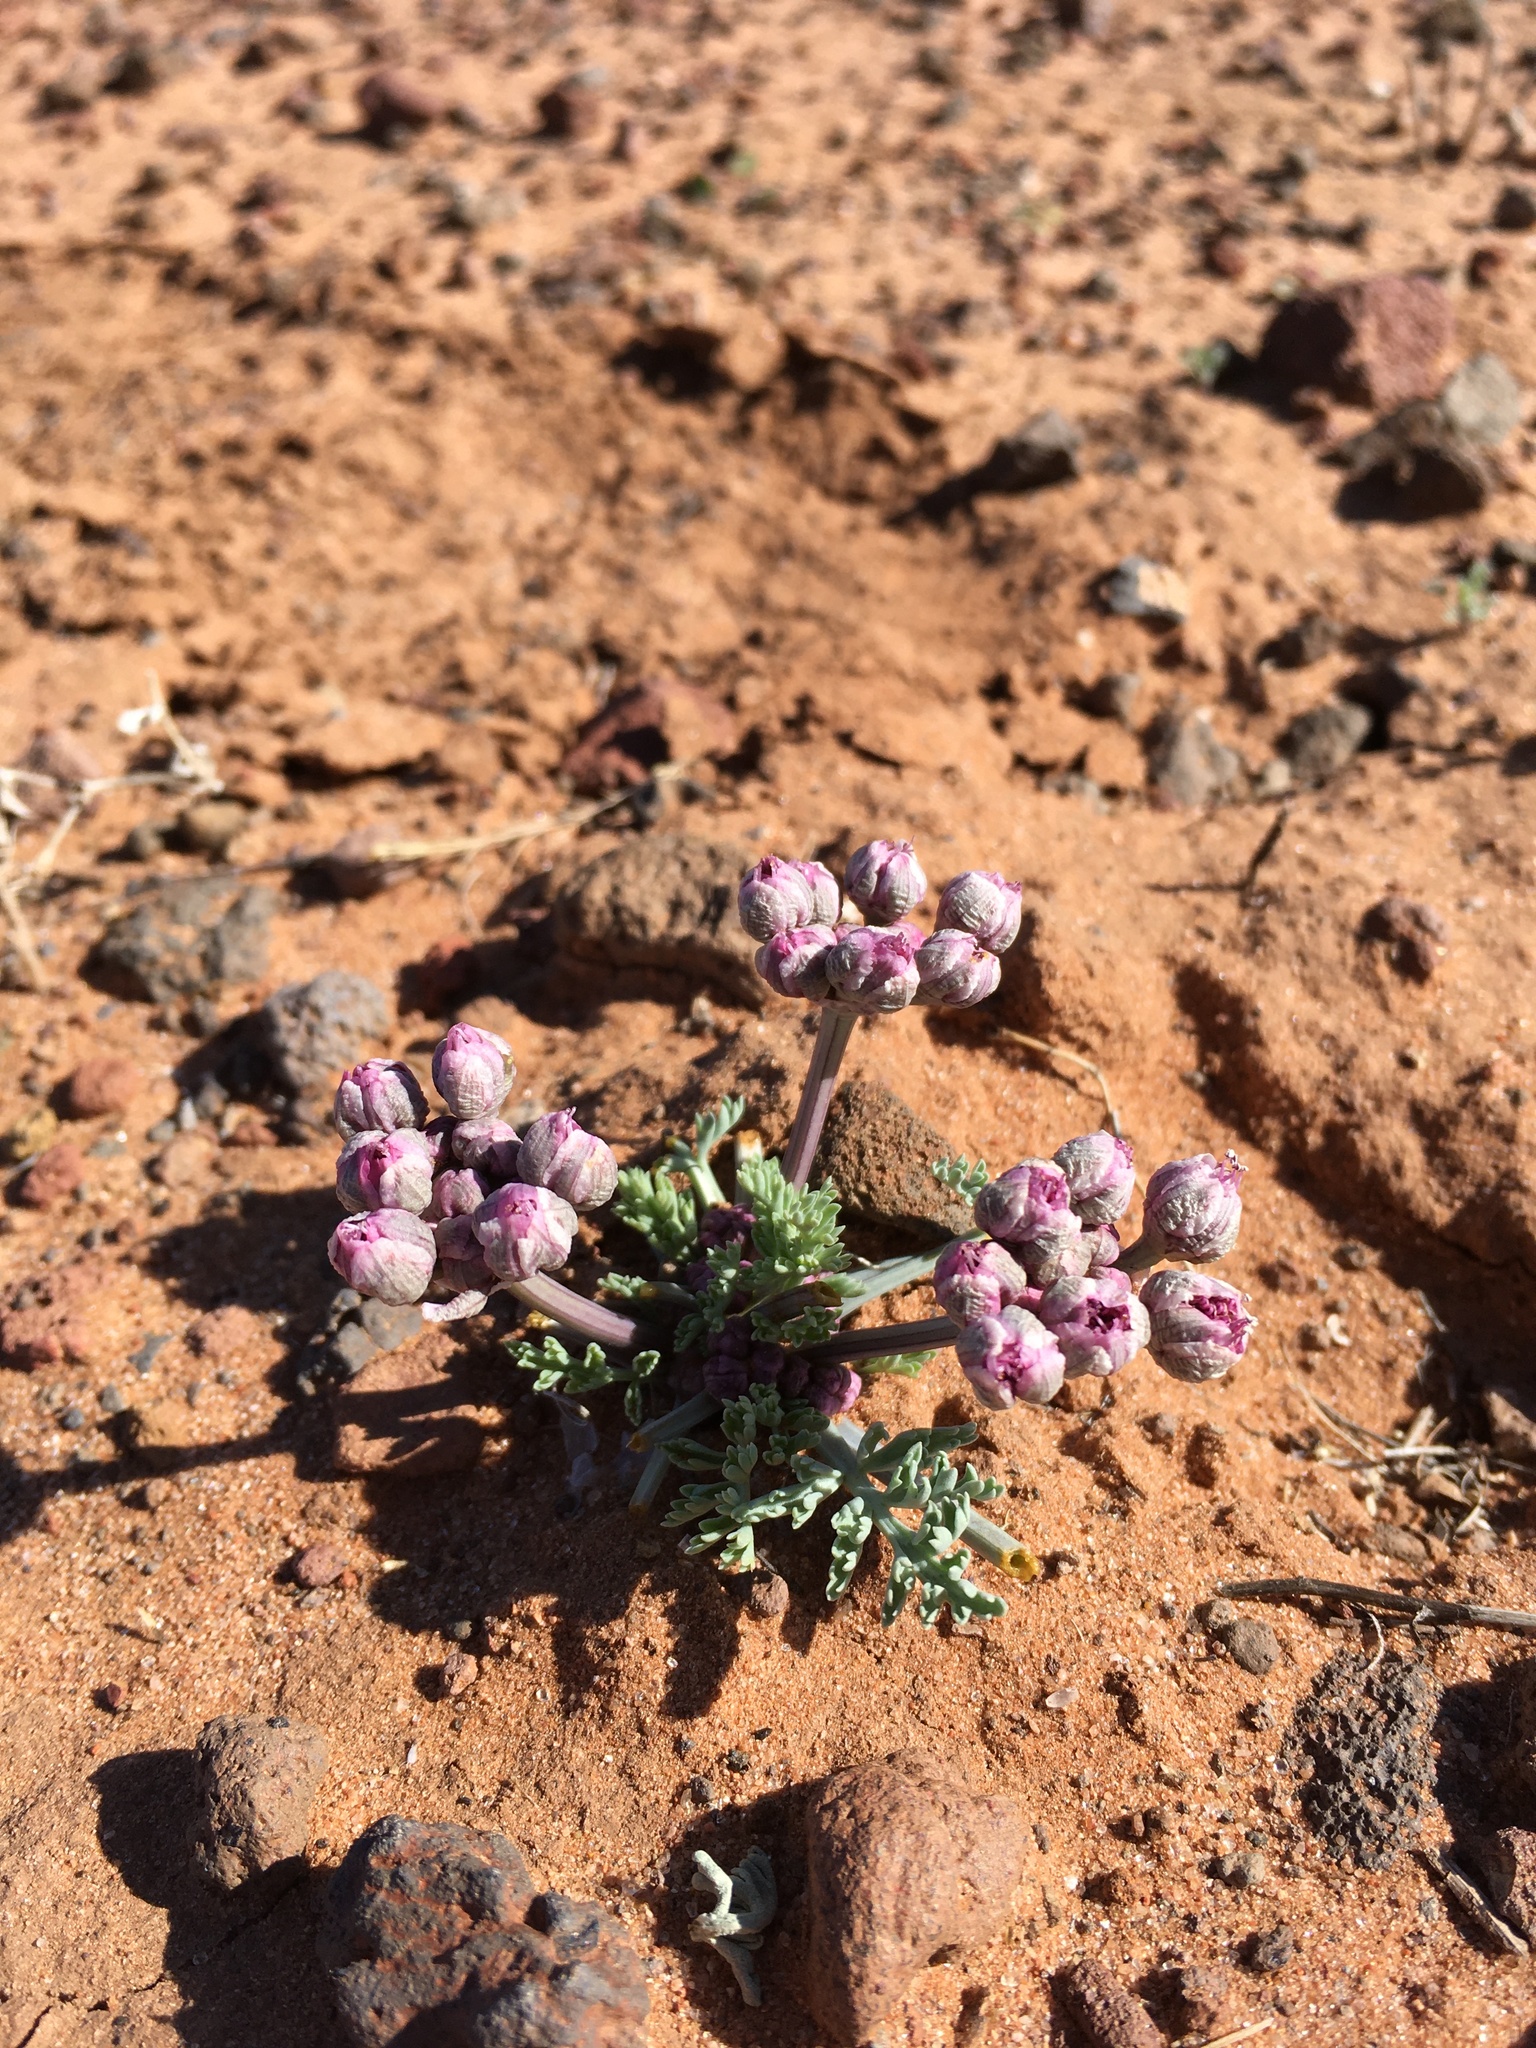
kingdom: Plantae
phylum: Tracheophyta
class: Magnoliopsida
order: Apiales
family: Apiaceae
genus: Vesper
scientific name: Vesper multinervatus
